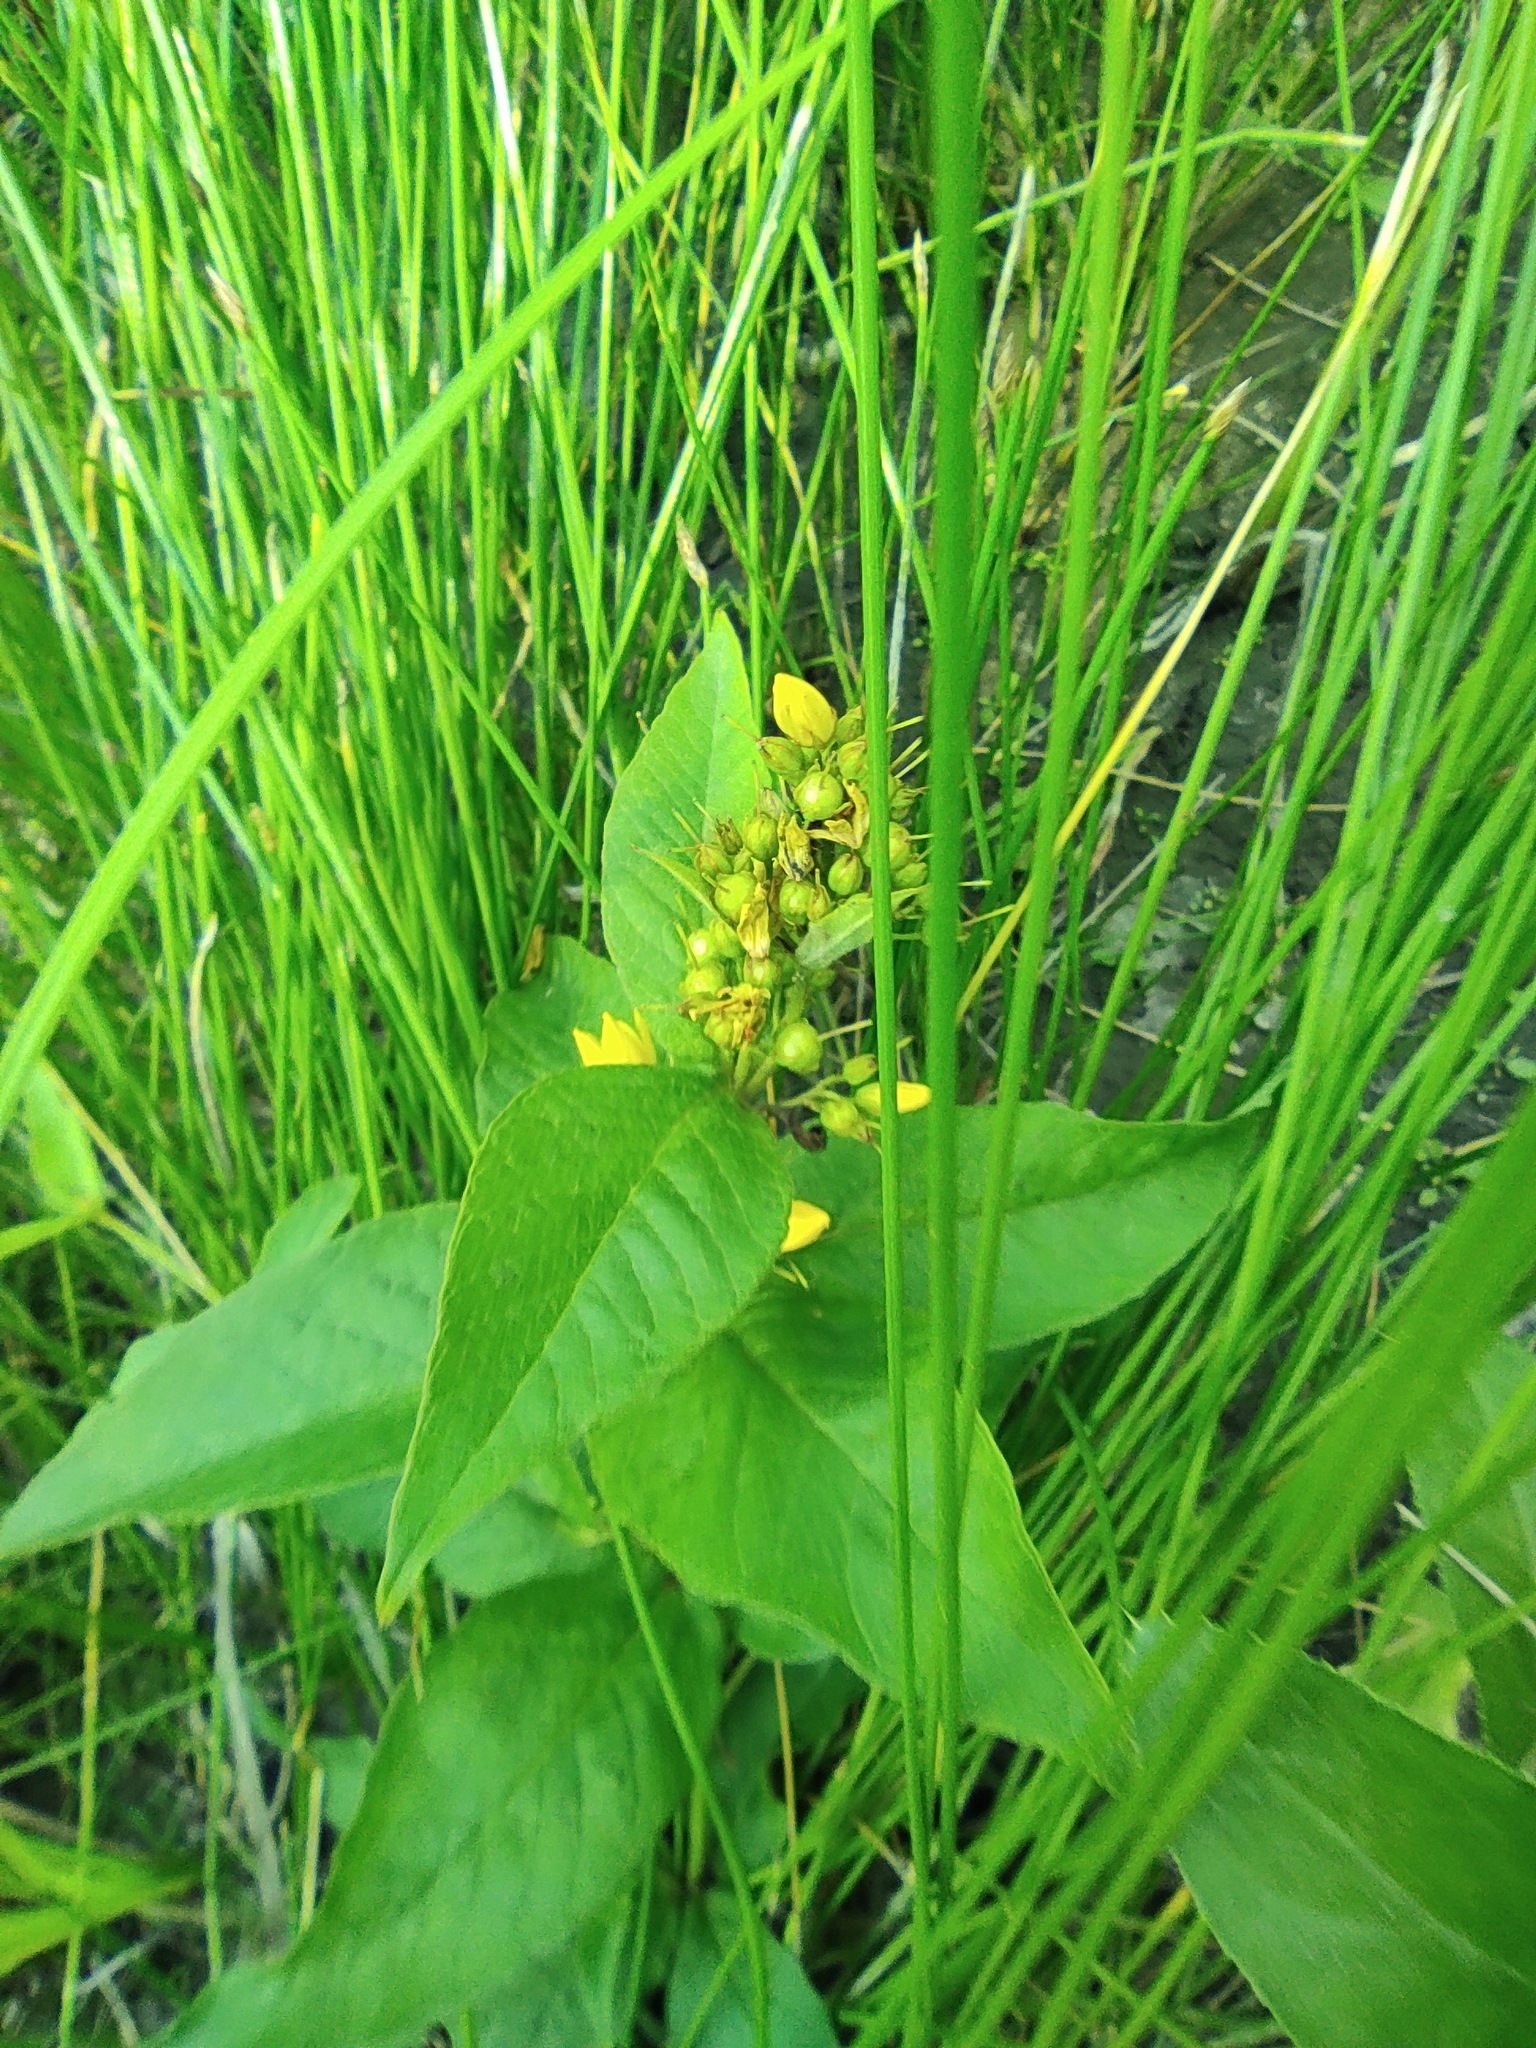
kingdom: Plantae
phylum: Tracheophyta
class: Magnoliopsida
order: Ericales
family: Primulaceae
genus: Lysimachia
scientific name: Lysimachia vulgaris
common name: Yellow loosestrife
